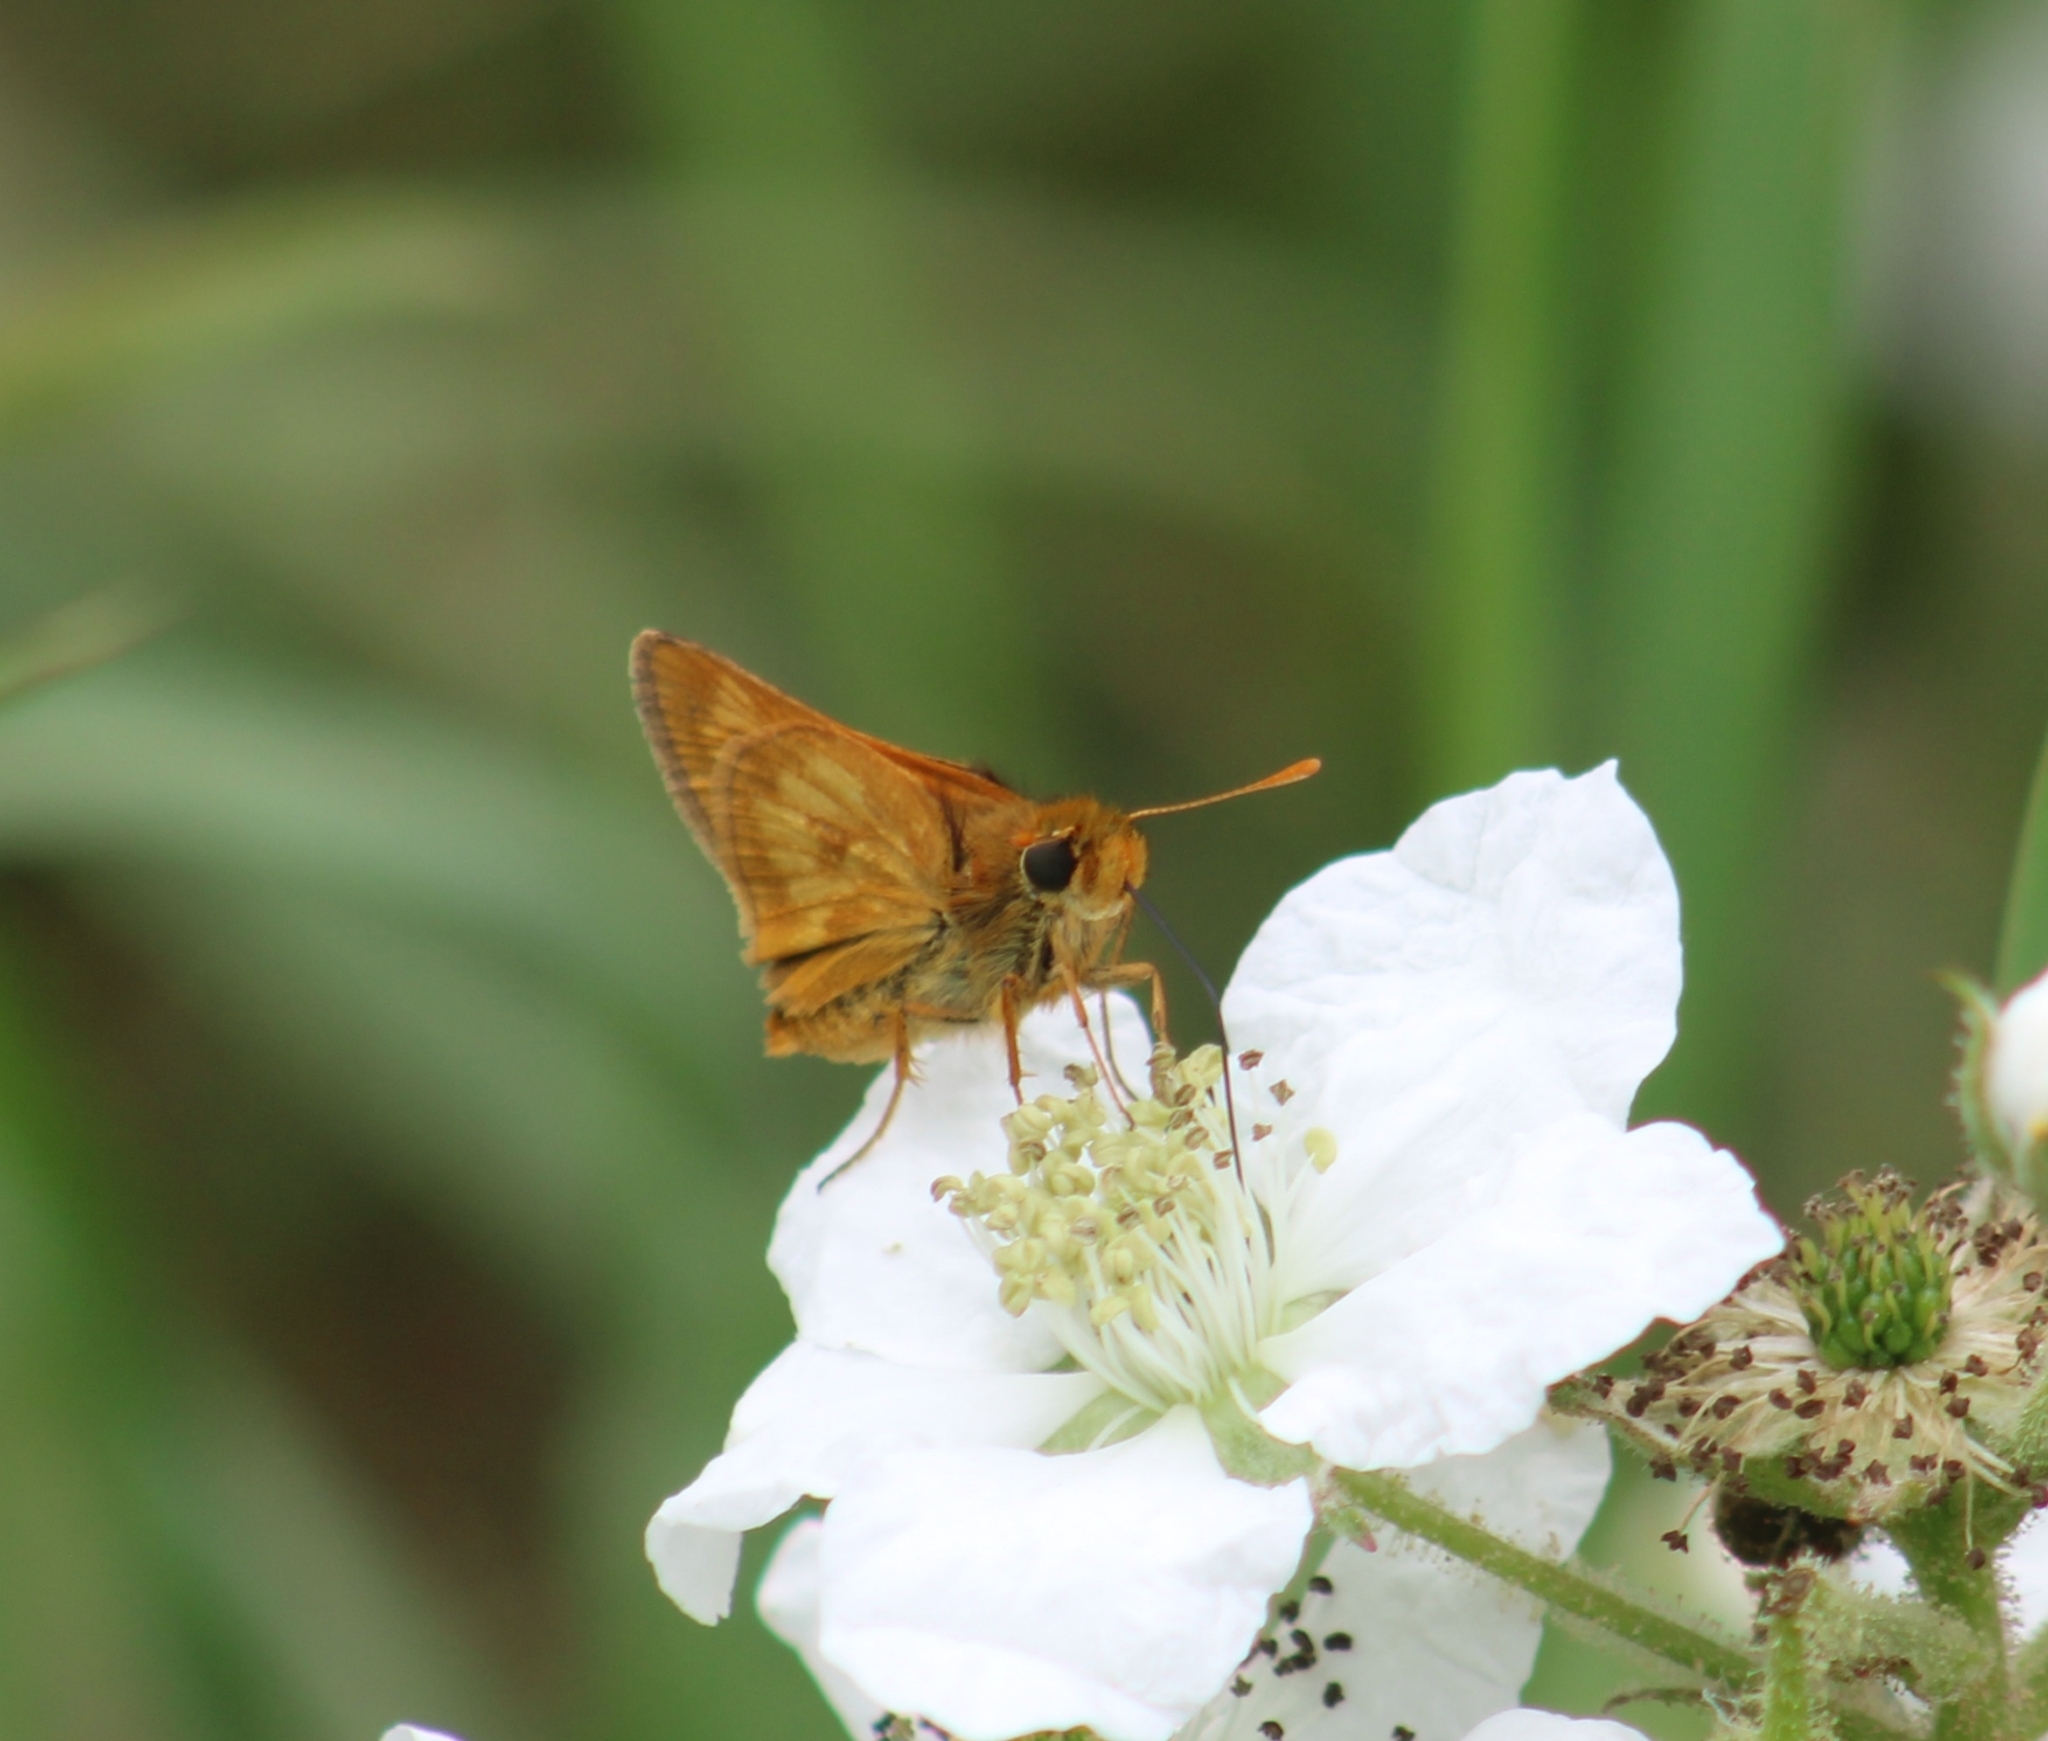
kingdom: Animalia
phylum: Arthropoda
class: Insecta
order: Lepidoptera
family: Hesperiidae
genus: Polites
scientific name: Polites mystic
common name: Long dash
